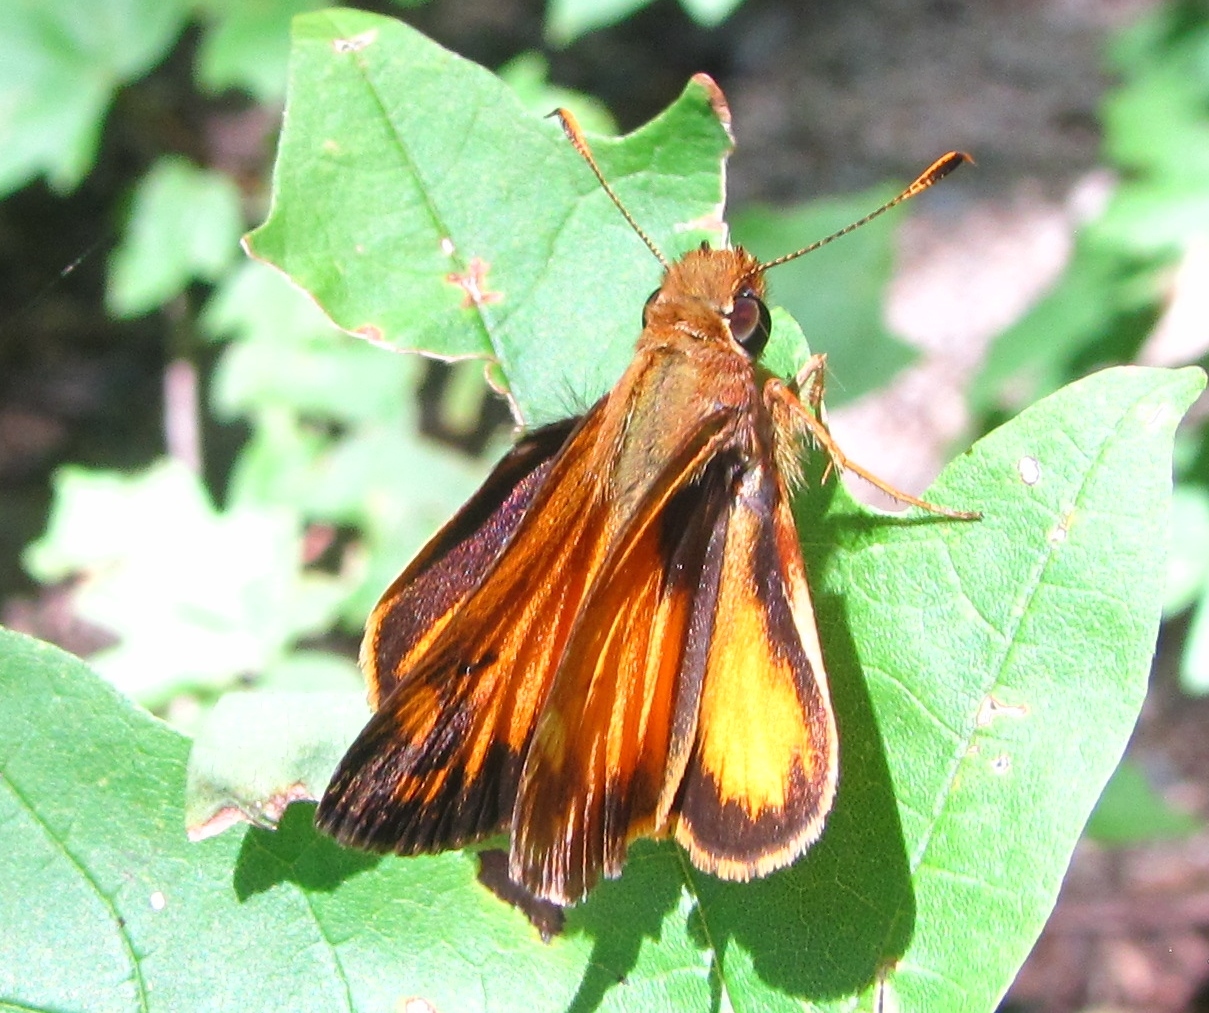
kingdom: Animalia
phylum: Arthropoda
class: Insecta
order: Lepidoptera
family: Hesperiidae
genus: Lon
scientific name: Lon zabulon
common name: Zabulon skipper
